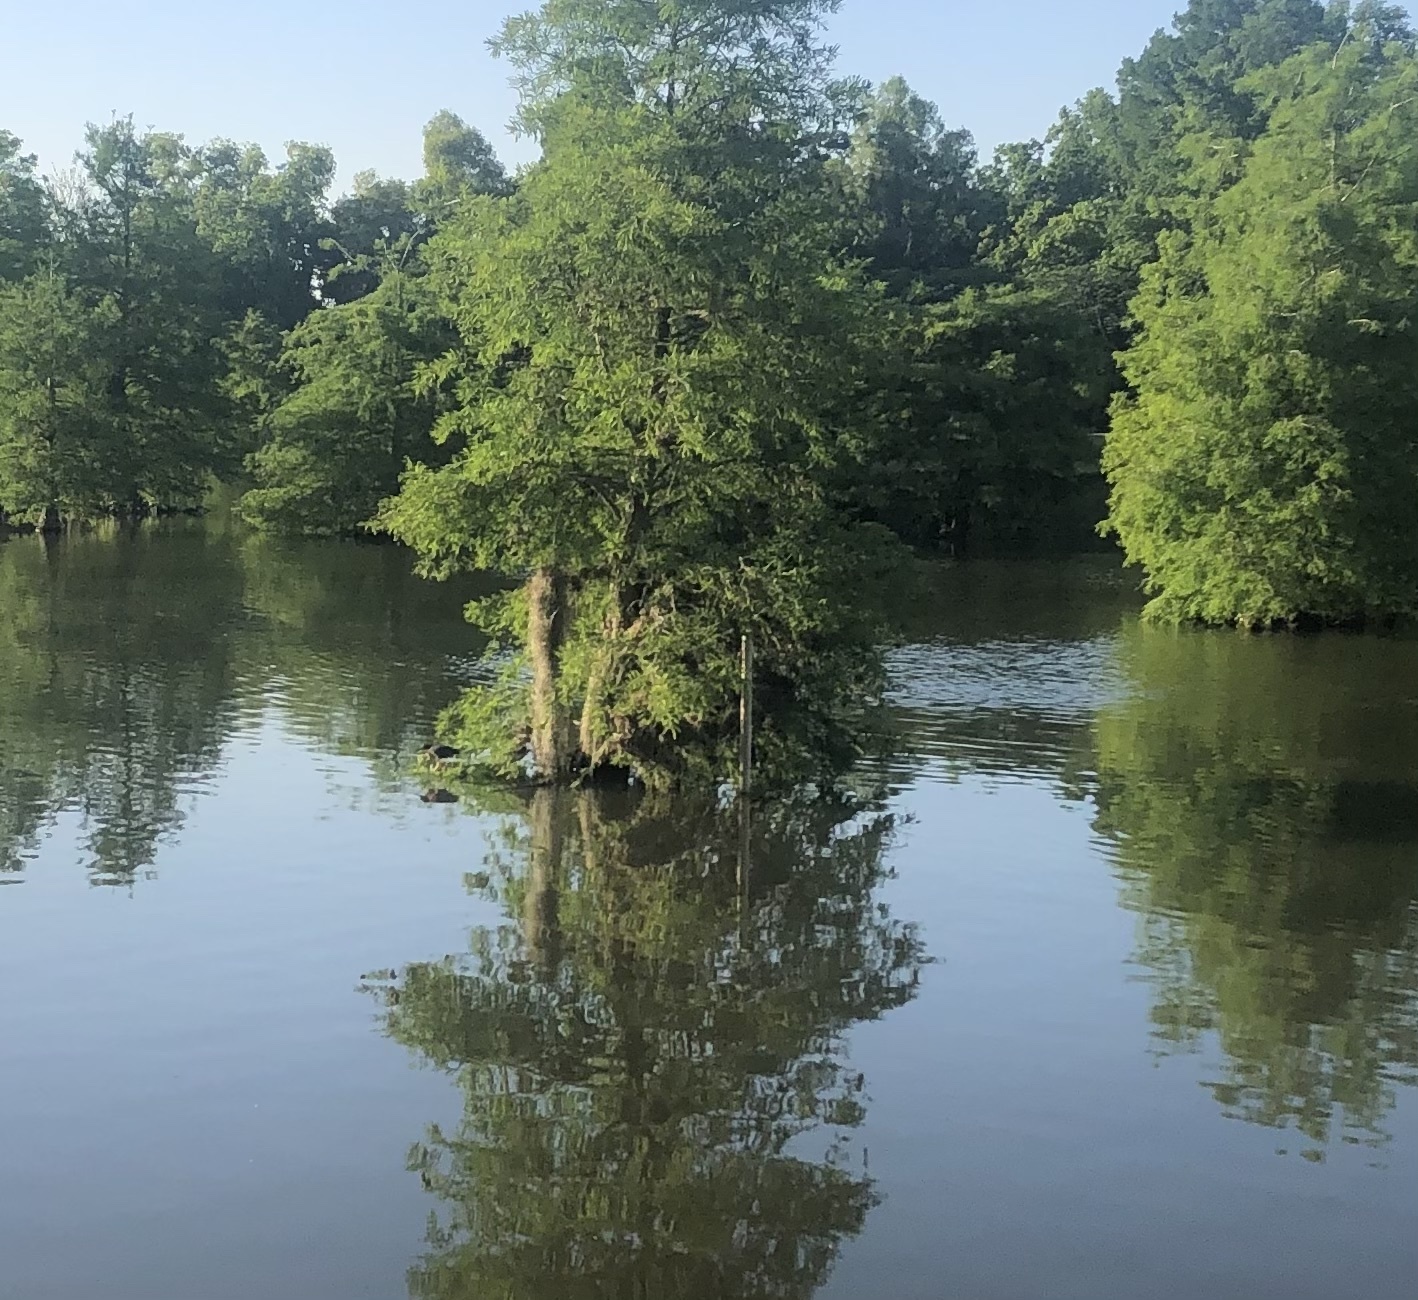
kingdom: Plantae
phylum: Tracheophyta
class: Pinopsida
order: Pinales
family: Cupressaceae
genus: Taxodium
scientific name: Taxodium distichum
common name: Bald cypress
